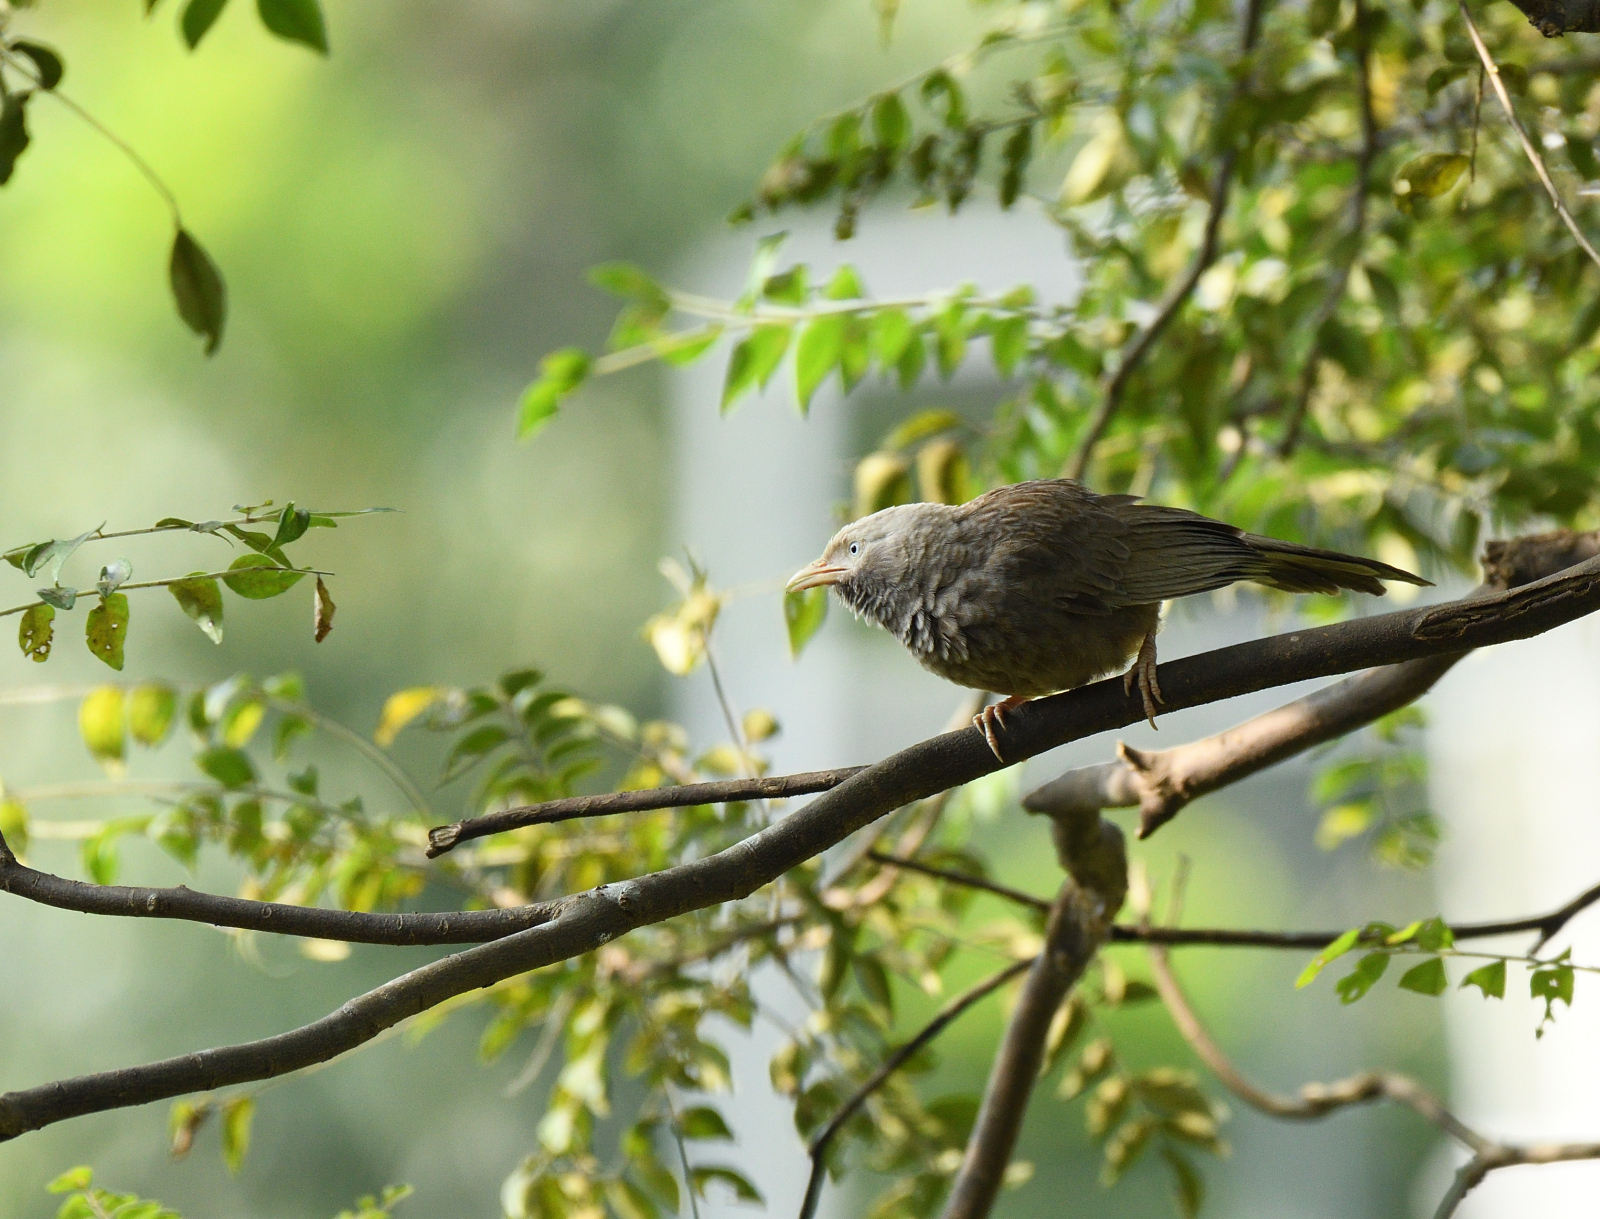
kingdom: Animalia
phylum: Chordata
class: Aves
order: Passeriformes
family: Leiothrichidae
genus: Turdoides
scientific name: Turdoides affinis
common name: Yellow-billed babbler
